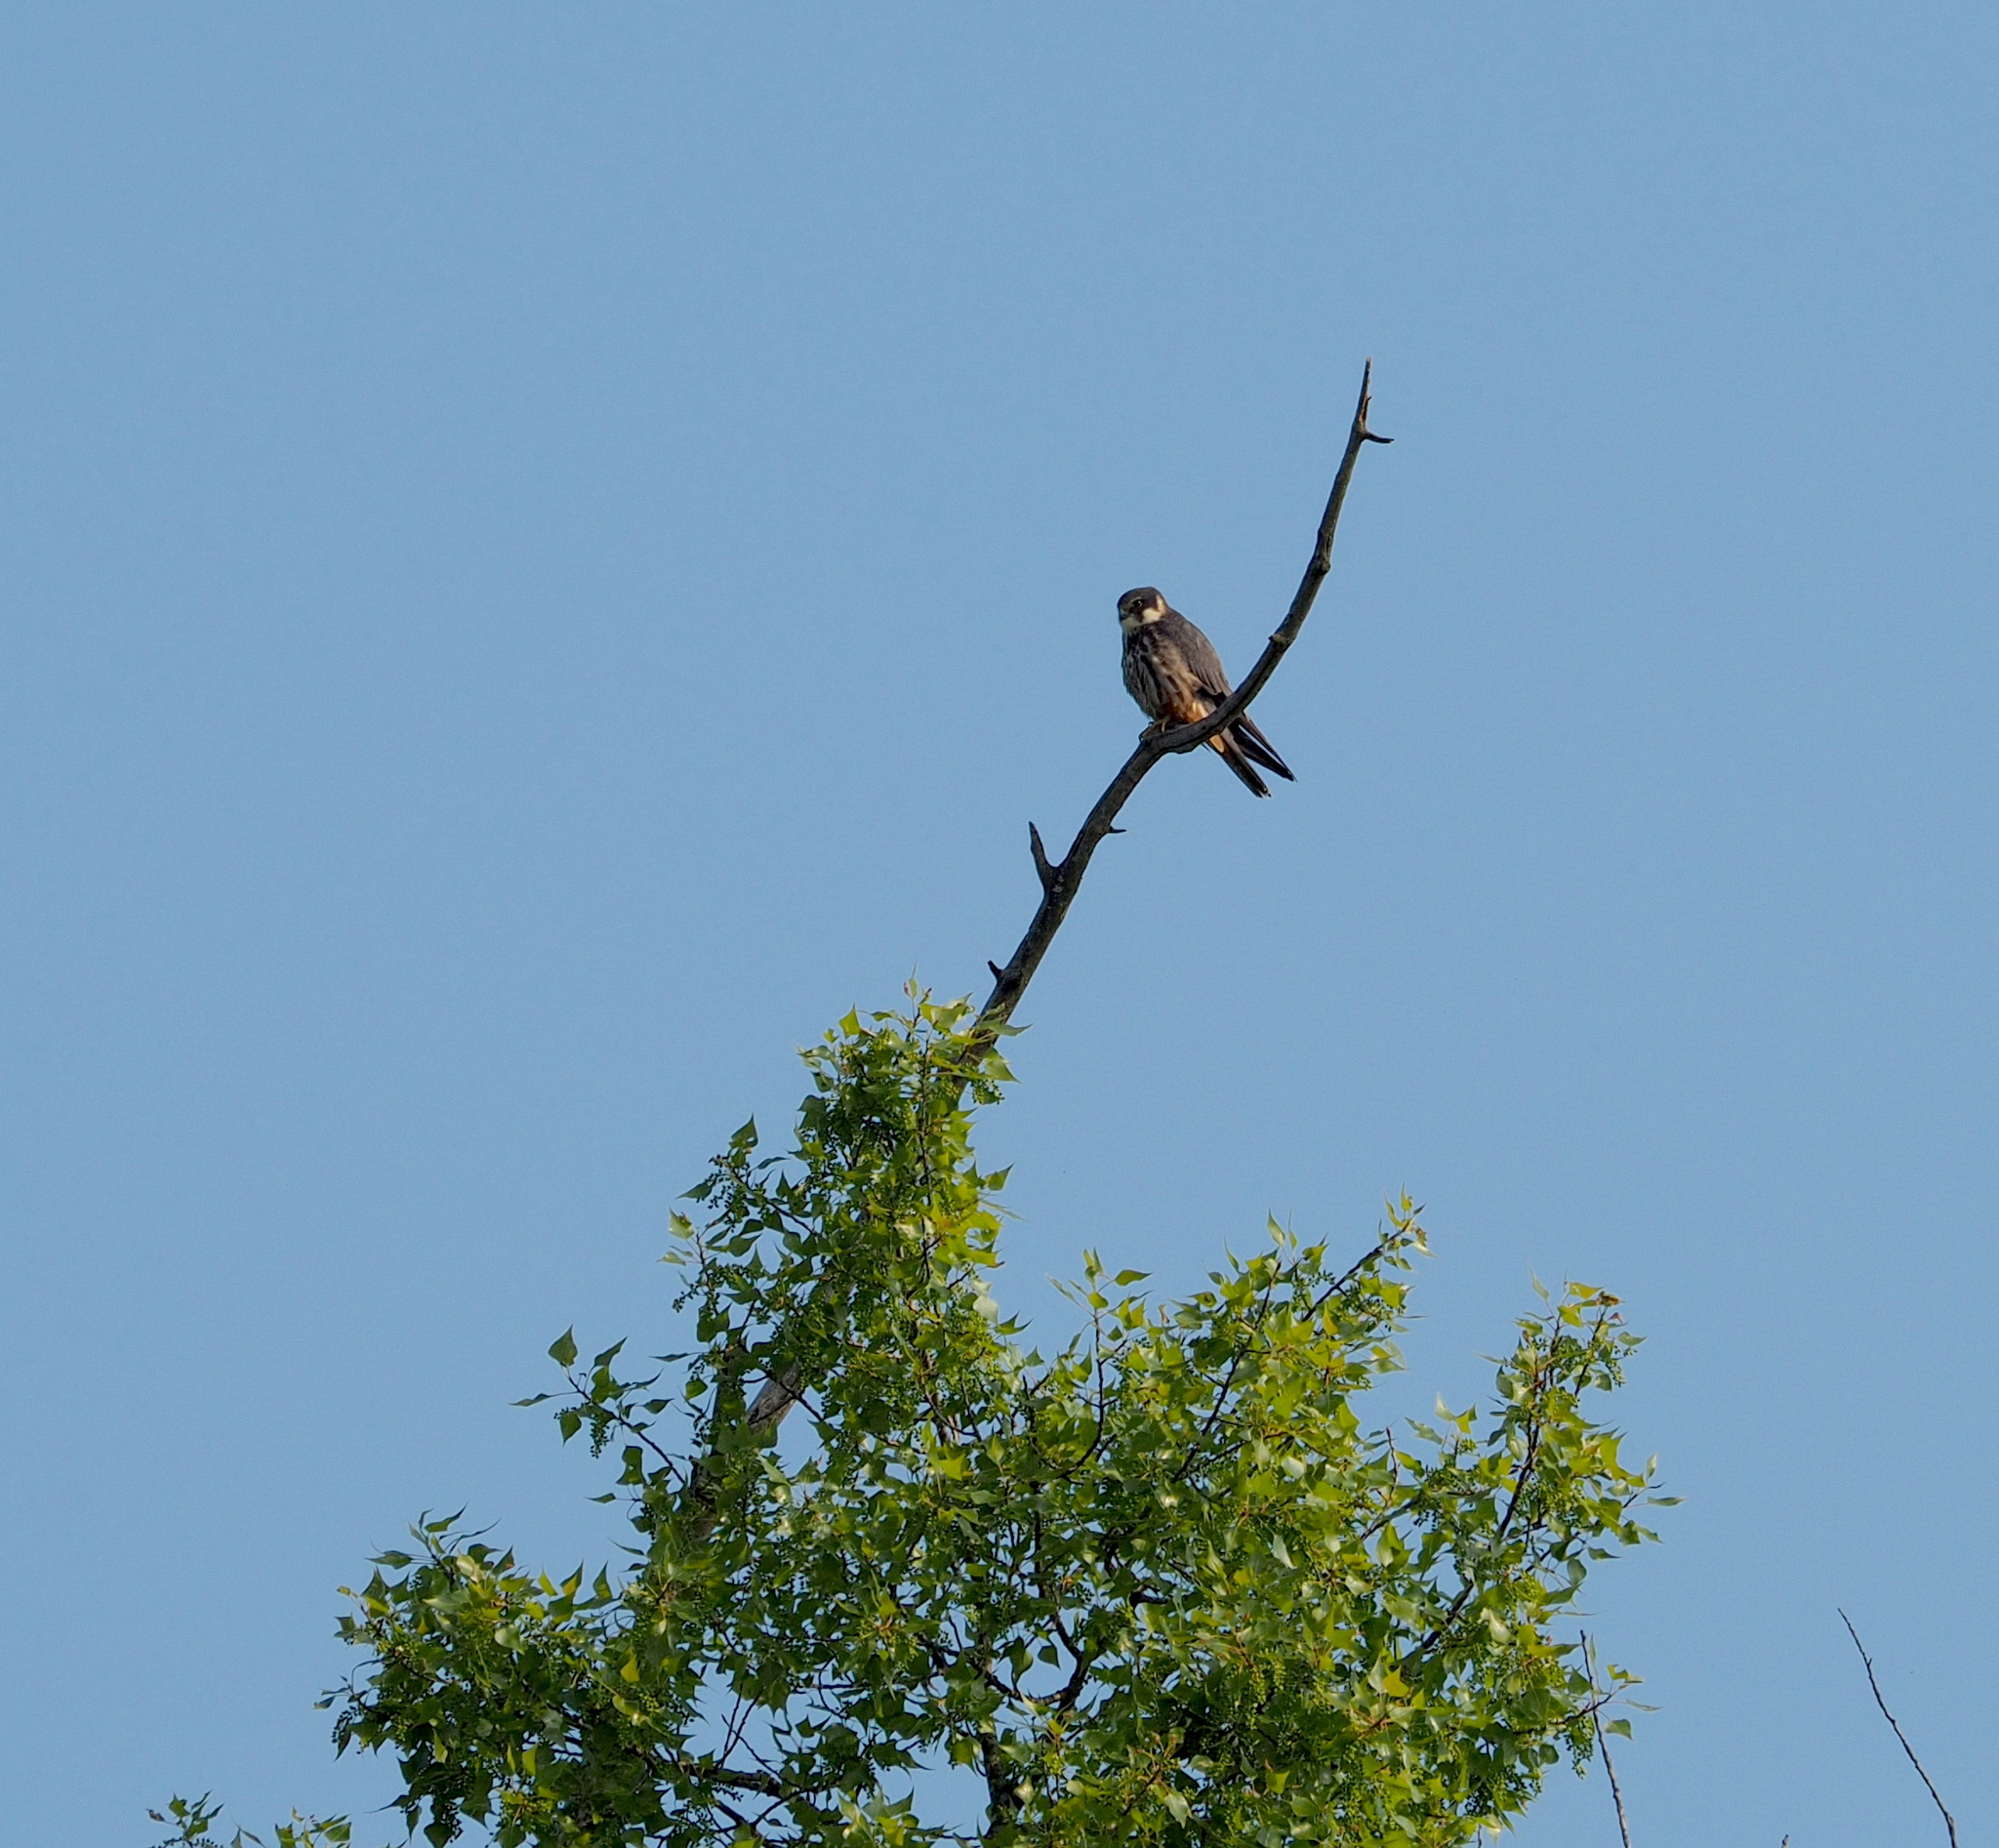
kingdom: Animalia
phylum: Chordata
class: Aves
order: Falconiformes
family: Falconidae
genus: Falco
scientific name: Falco subbuteo
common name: Eurasian hobby
